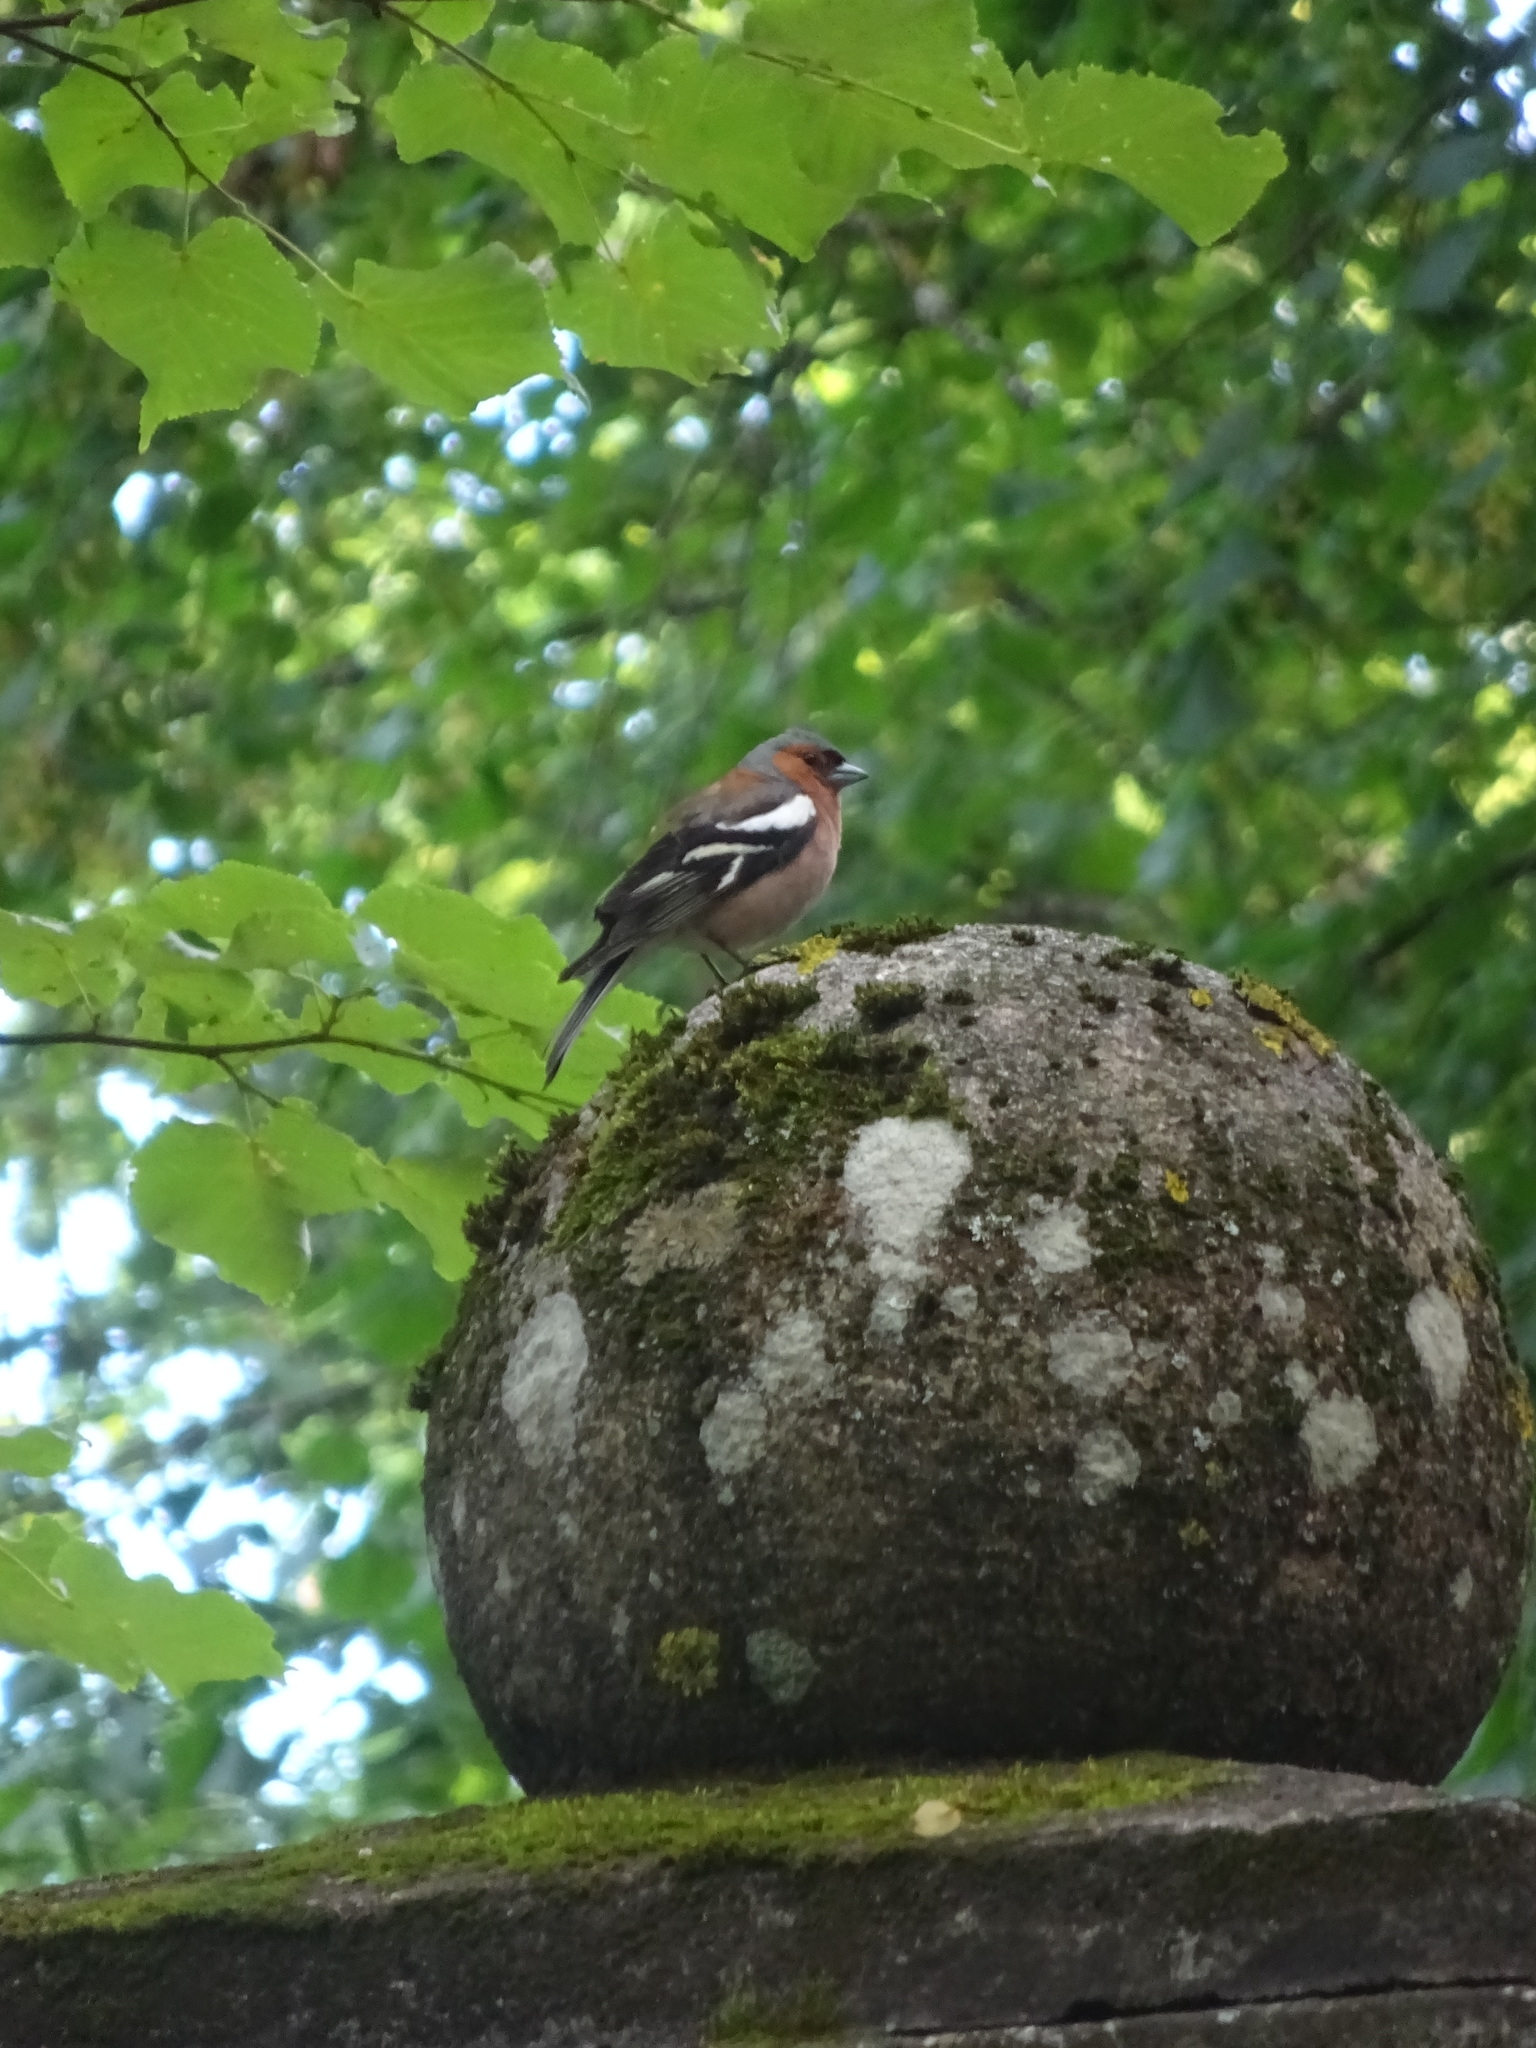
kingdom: Animalia
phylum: Chordata
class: Aves
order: Passeriformes
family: Fringillidae
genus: Fringilla
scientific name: Fringilla coelebs
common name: Common chaffinch
